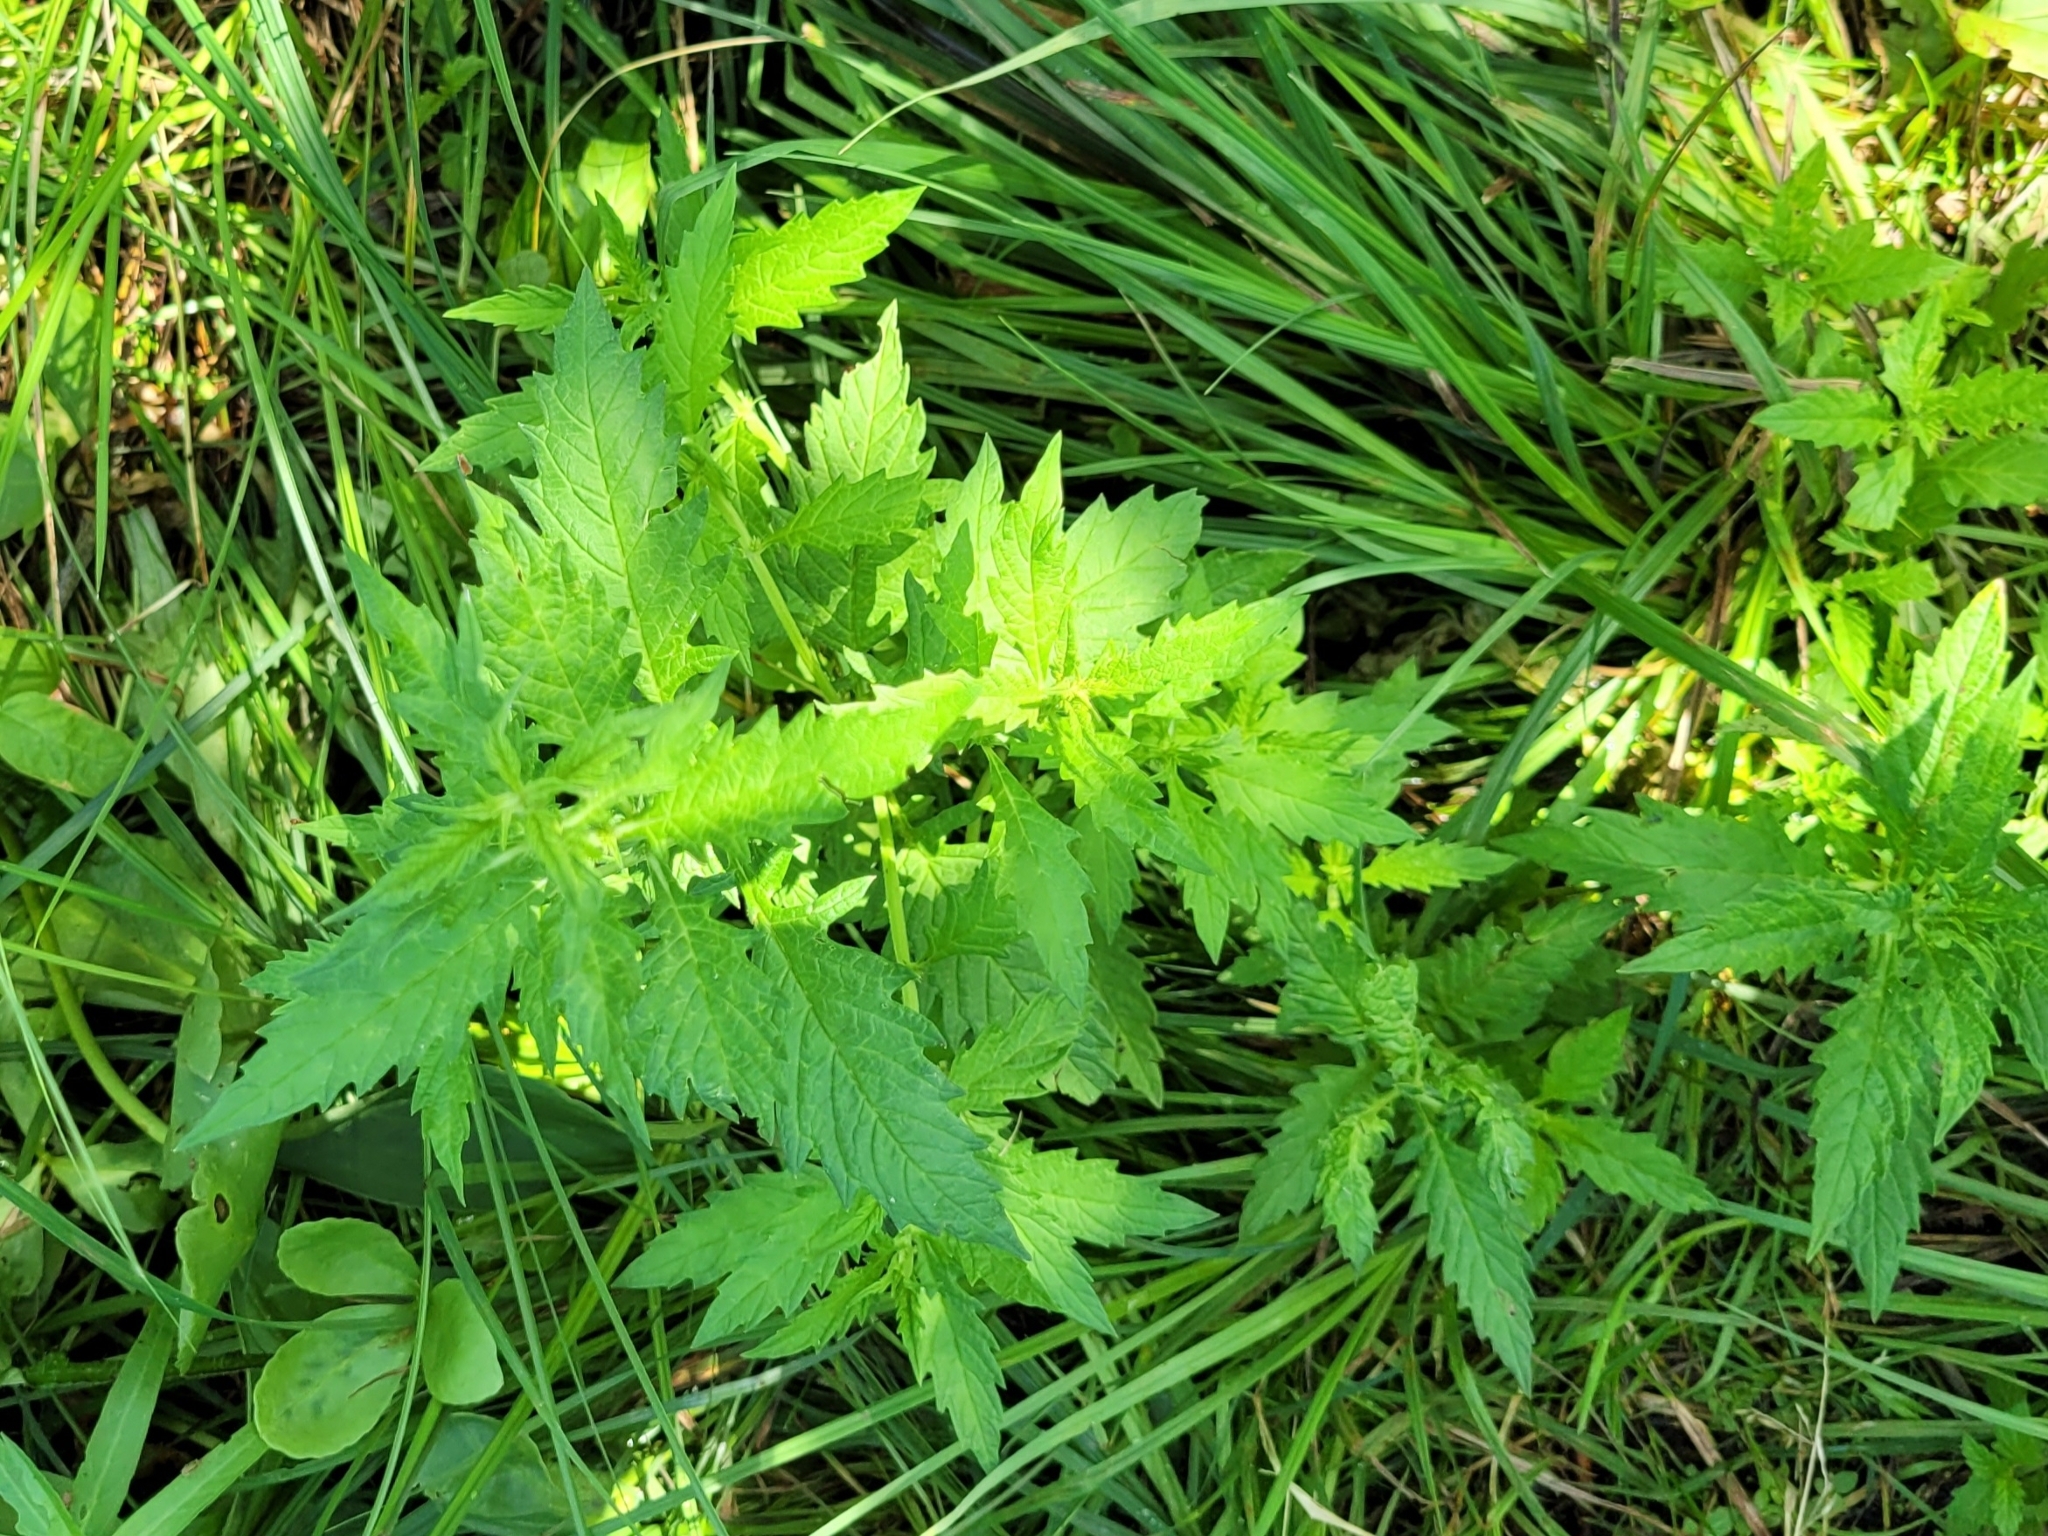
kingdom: Plantae
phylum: Tracheophyta
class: Magnoliopsida
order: Lamiales
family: Lamiaceae
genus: Lycopus
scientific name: Lycopus europaeus
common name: European bugleweed
